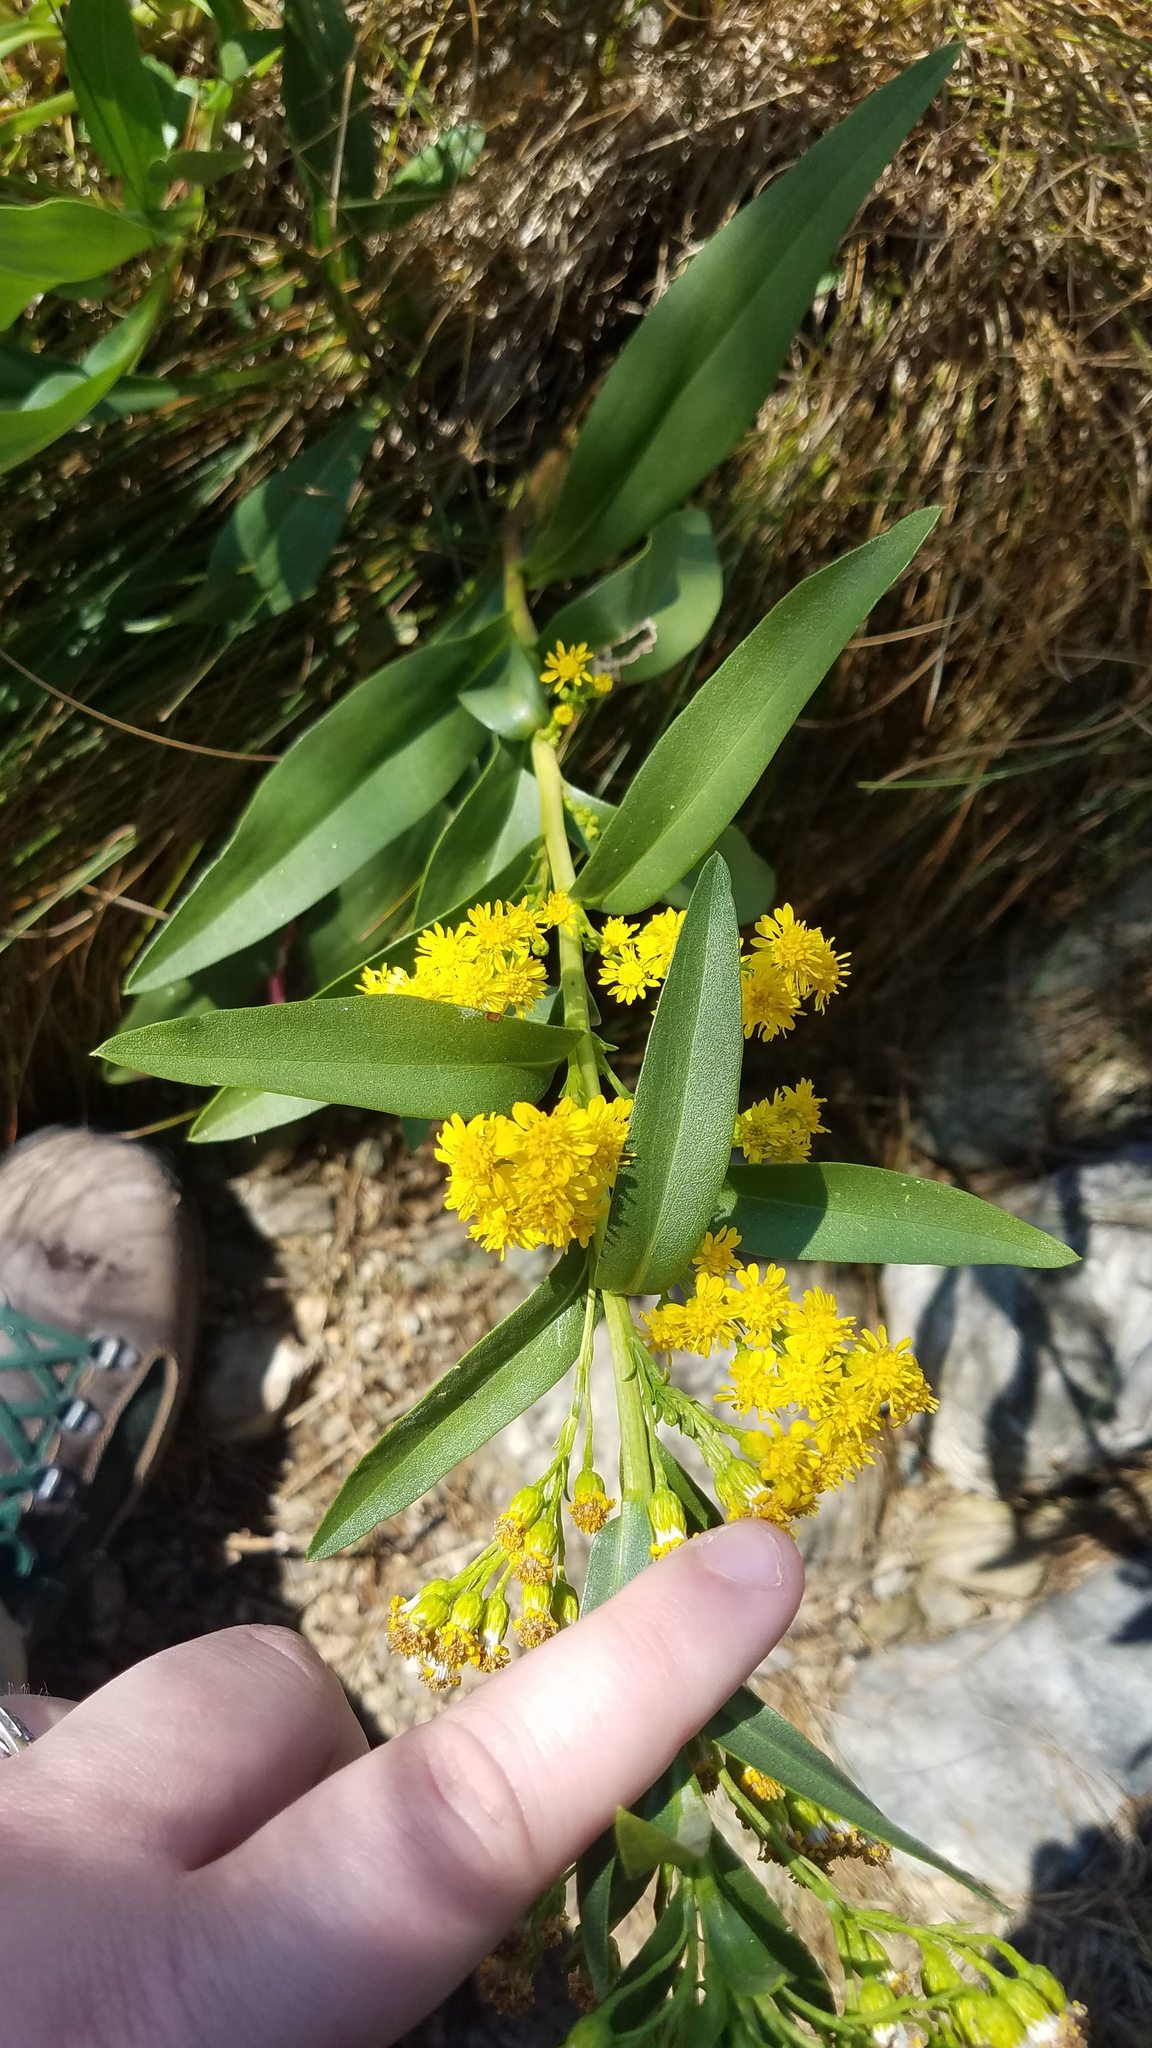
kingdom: Plantae
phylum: Tracheophyta
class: Magnoliopsida
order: Asterales
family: Asteraceae
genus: Solidago
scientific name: Solidago sempervirens
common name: Salt-marsh goldenrod
